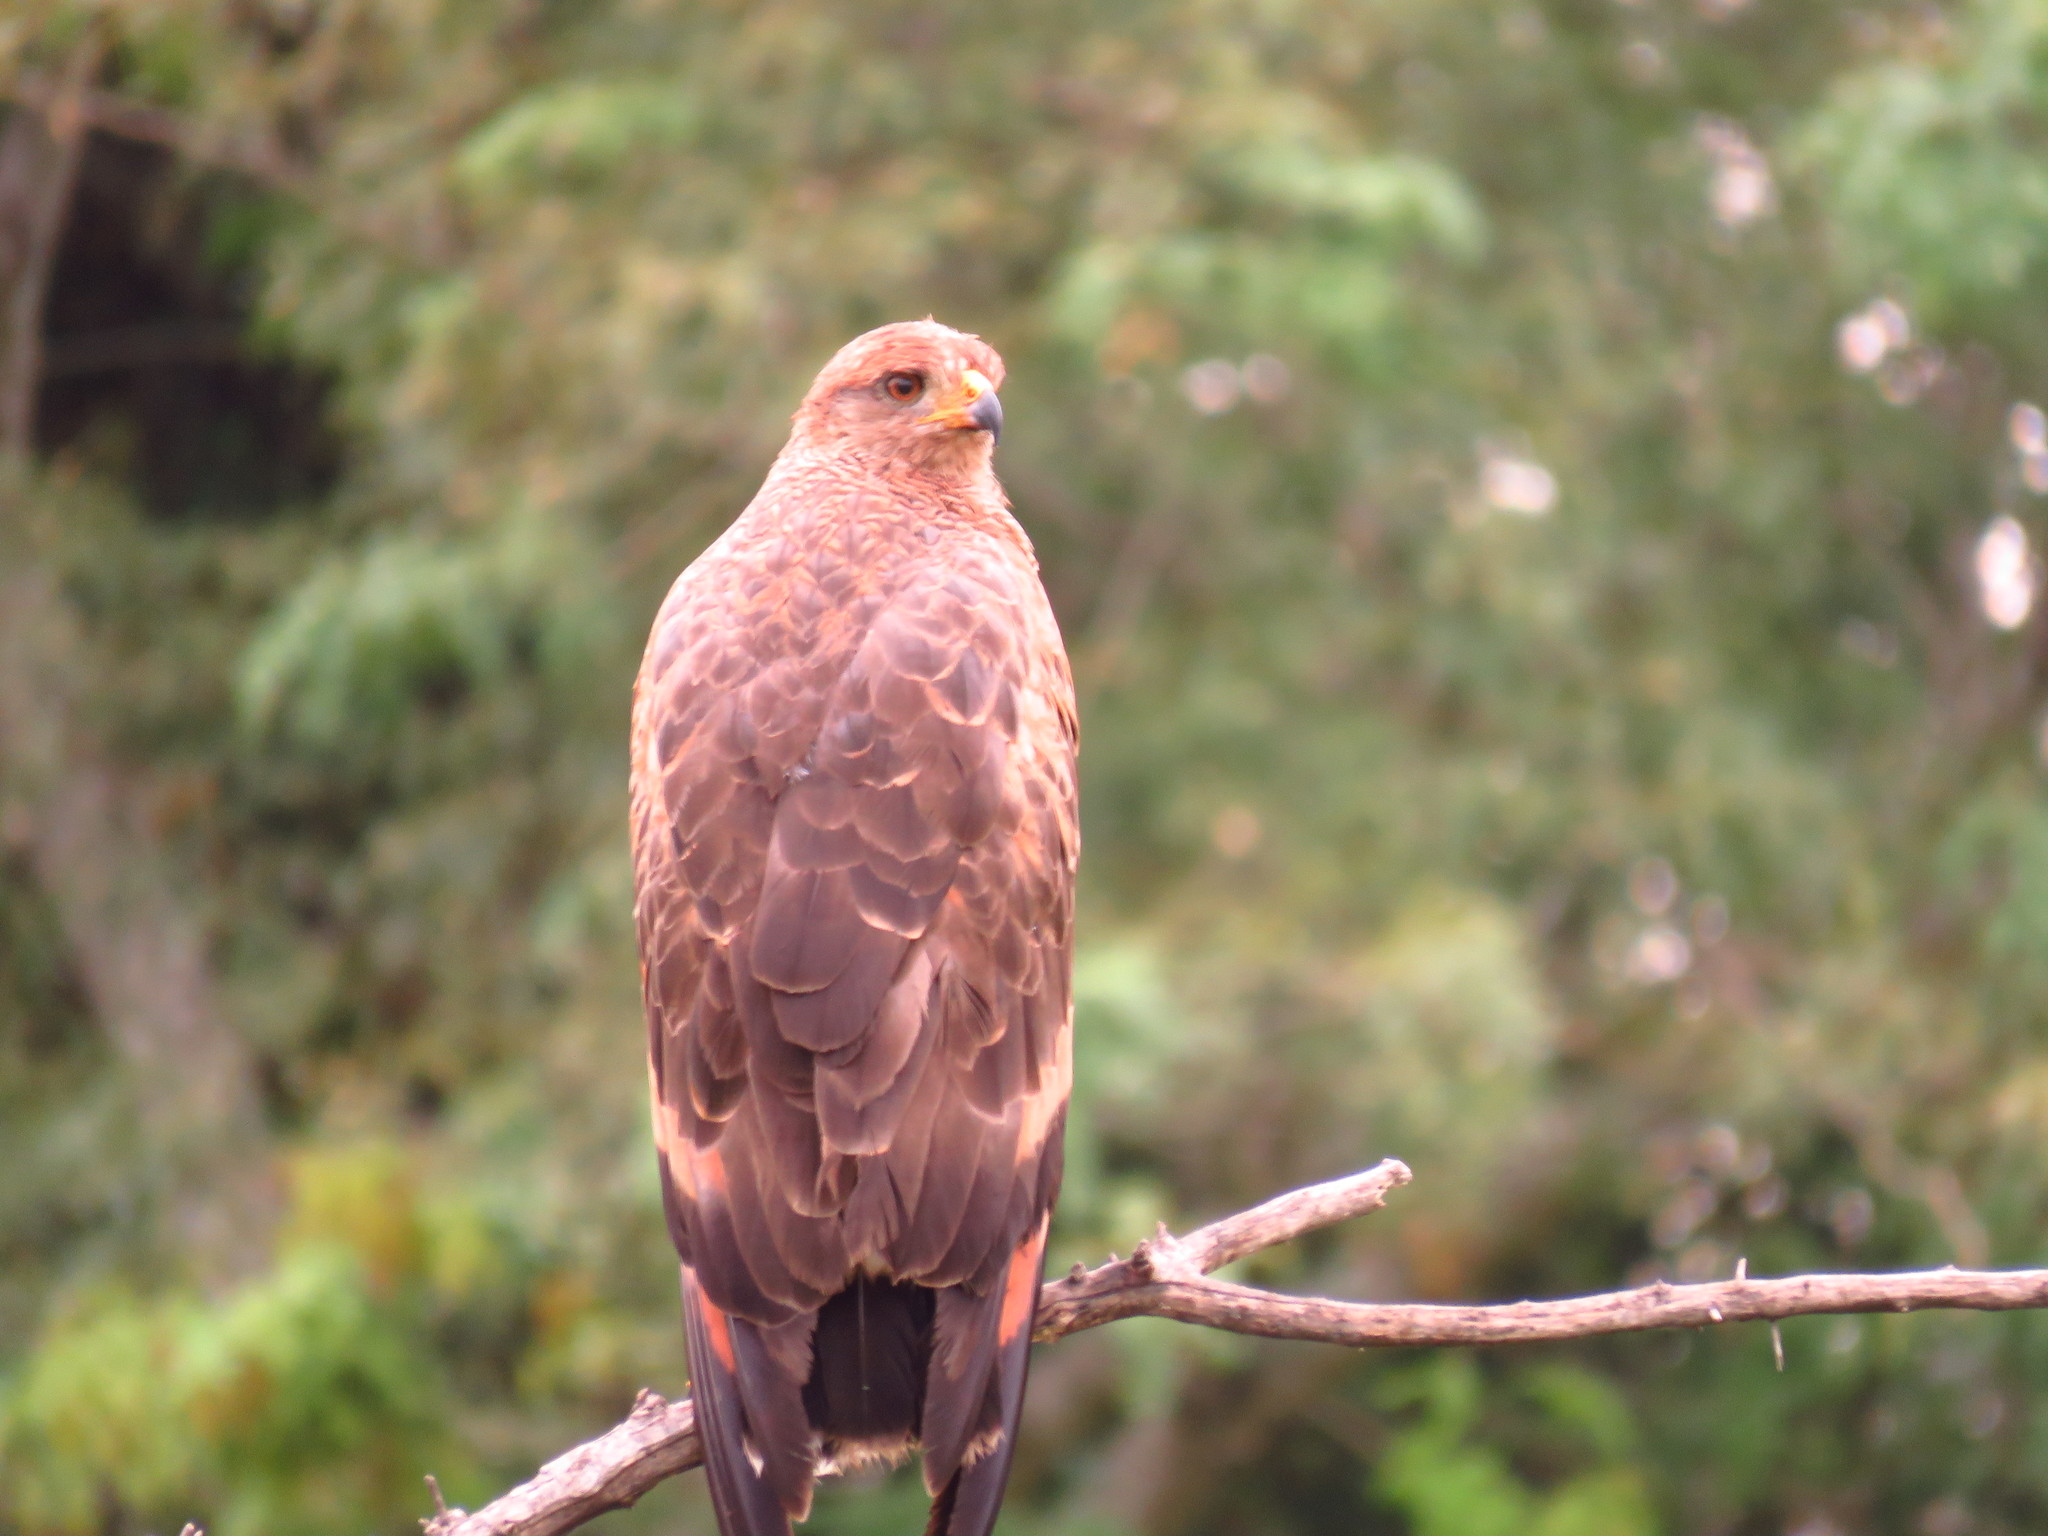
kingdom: Animalia
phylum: Chordata
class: Aves
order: Accipitriformes
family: Accipitridae
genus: Buteogallus
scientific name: Buteogallus meridionalis
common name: Savanna hawk
